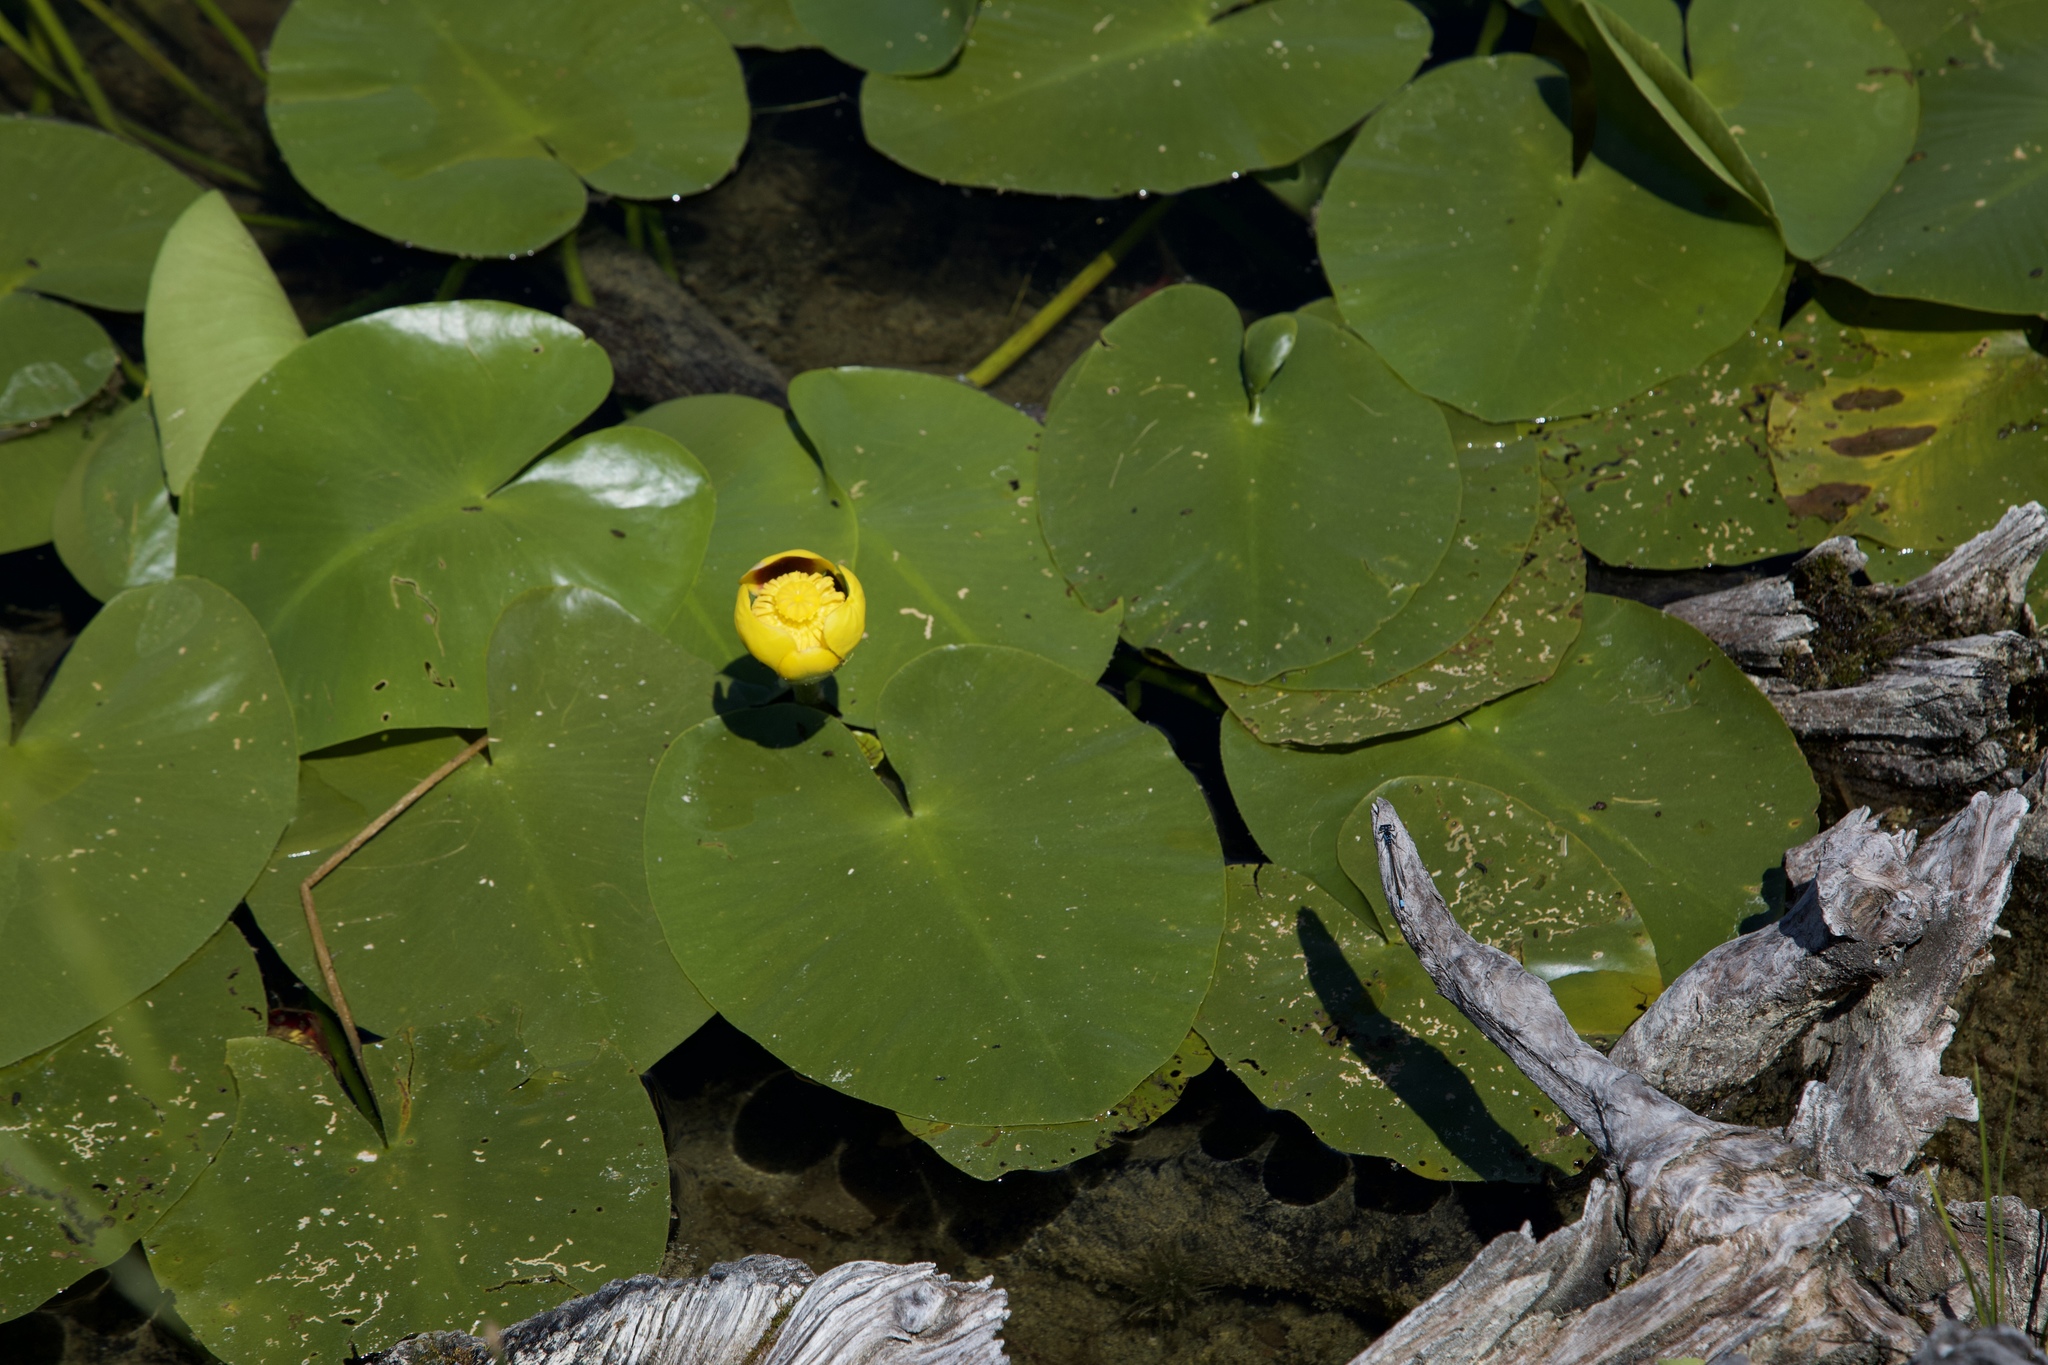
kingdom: Plantae
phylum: Tracheophyta
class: Magnoliopsida
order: Nymphaeales
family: Nymphaeaceae
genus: Nuphar
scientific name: Nuphar variegata
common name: Beaver-root
